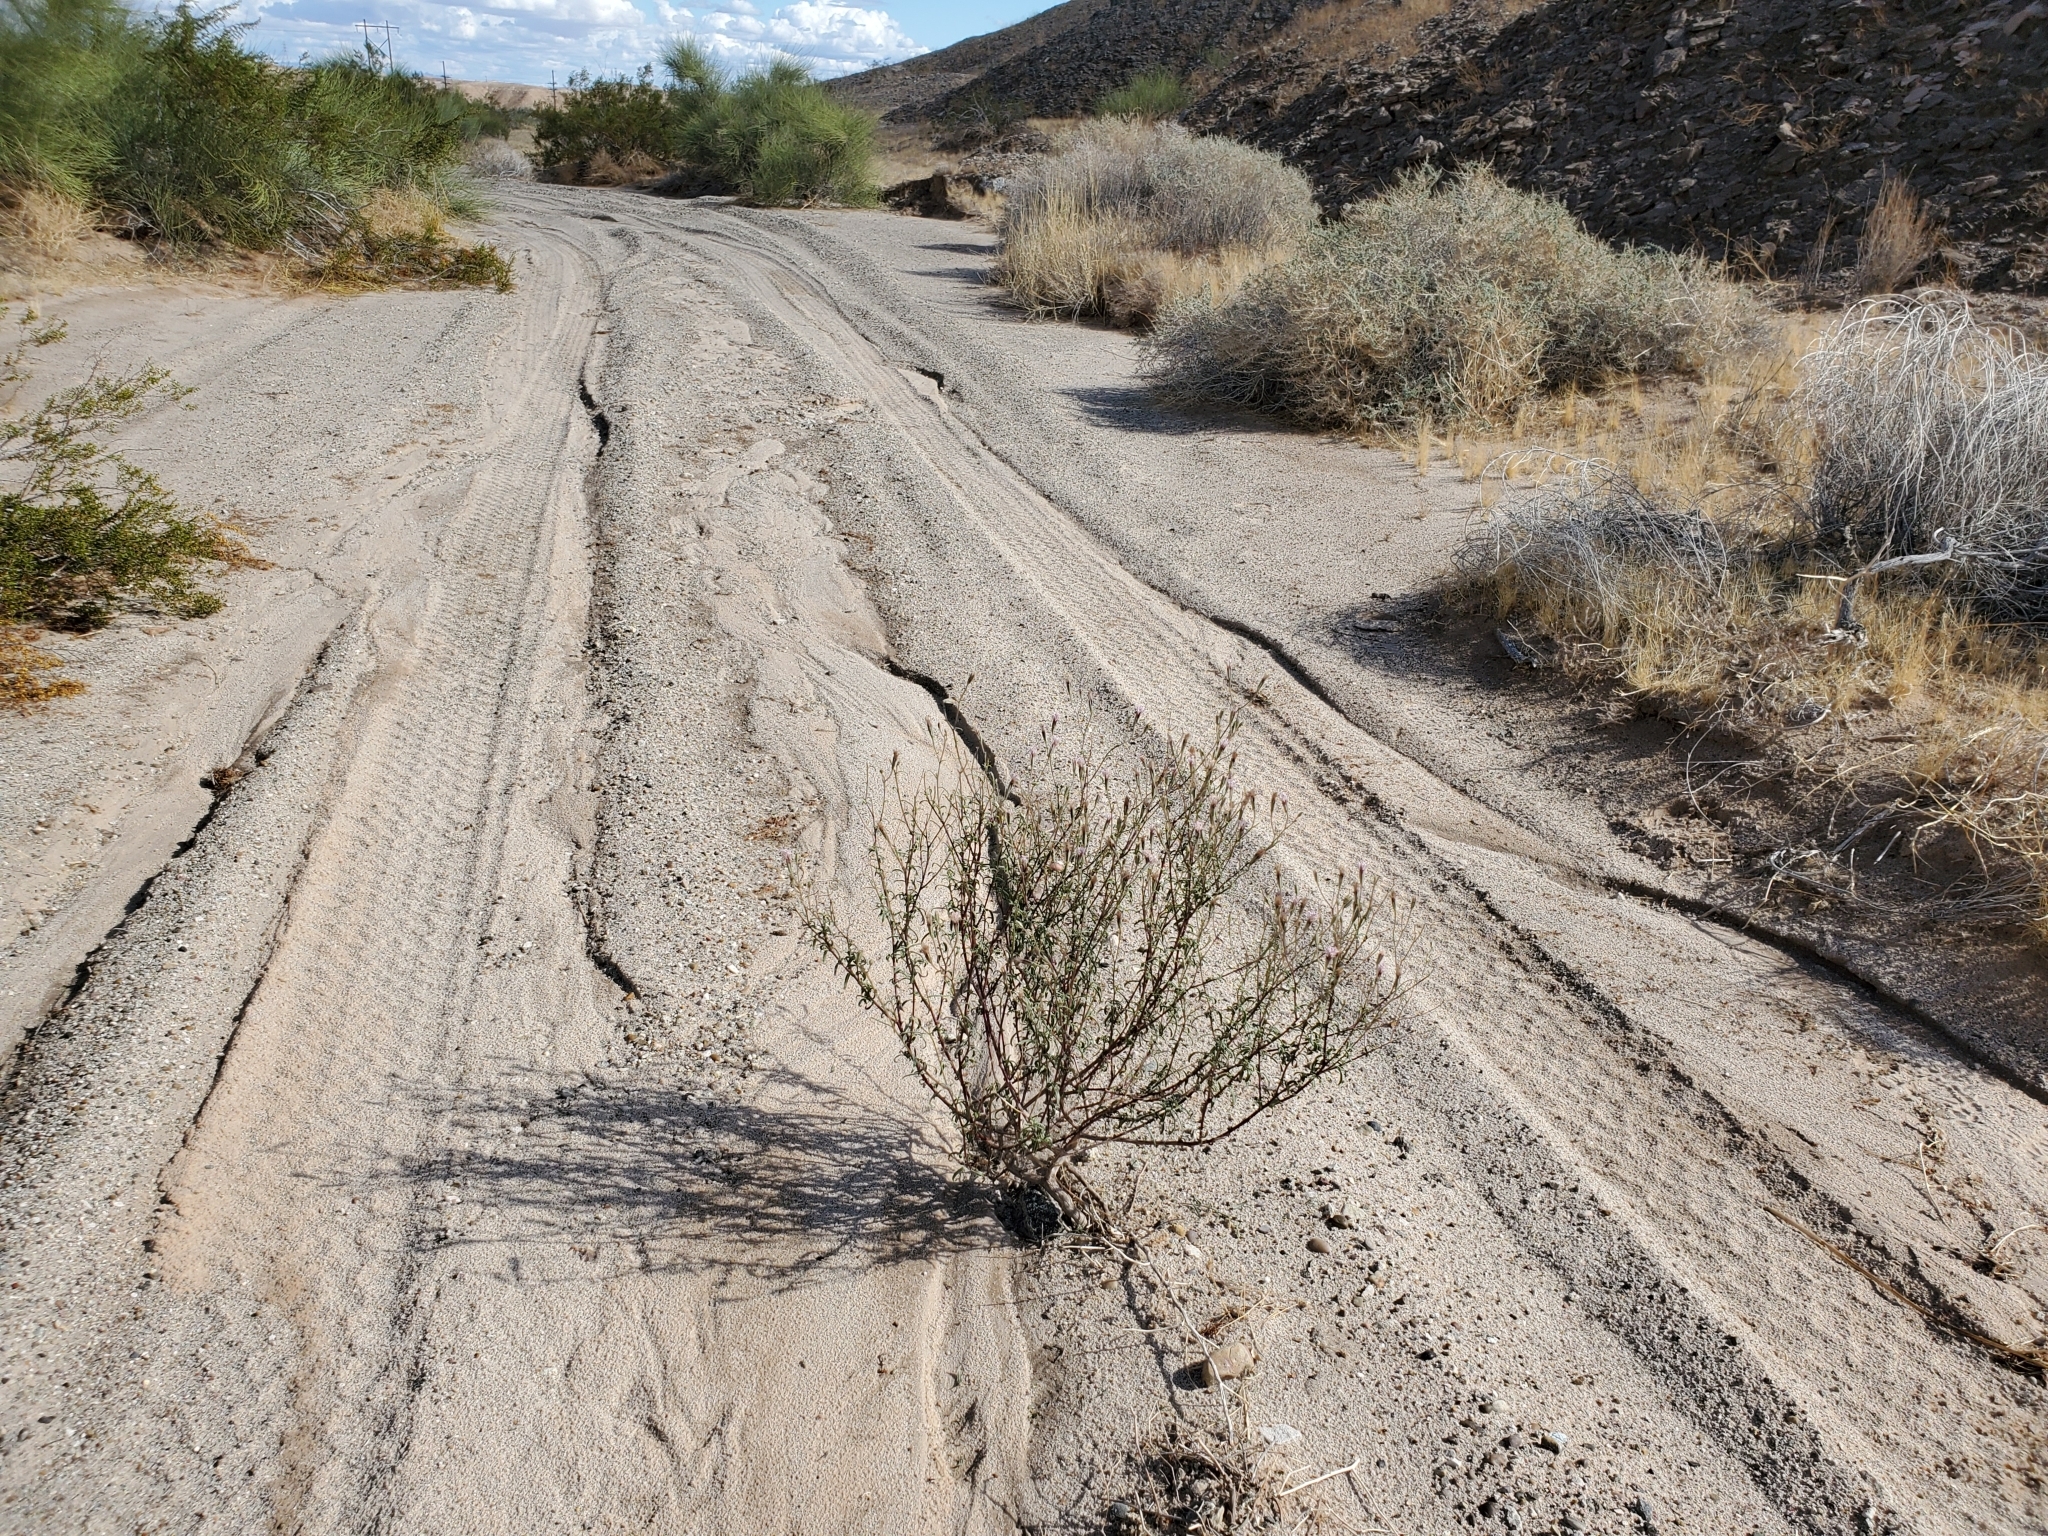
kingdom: Plantae
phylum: Tracheophyta
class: Magnoliopsida
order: Asterales
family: Asteraceae
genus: Palafoxia
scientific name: Palafoxia arida
